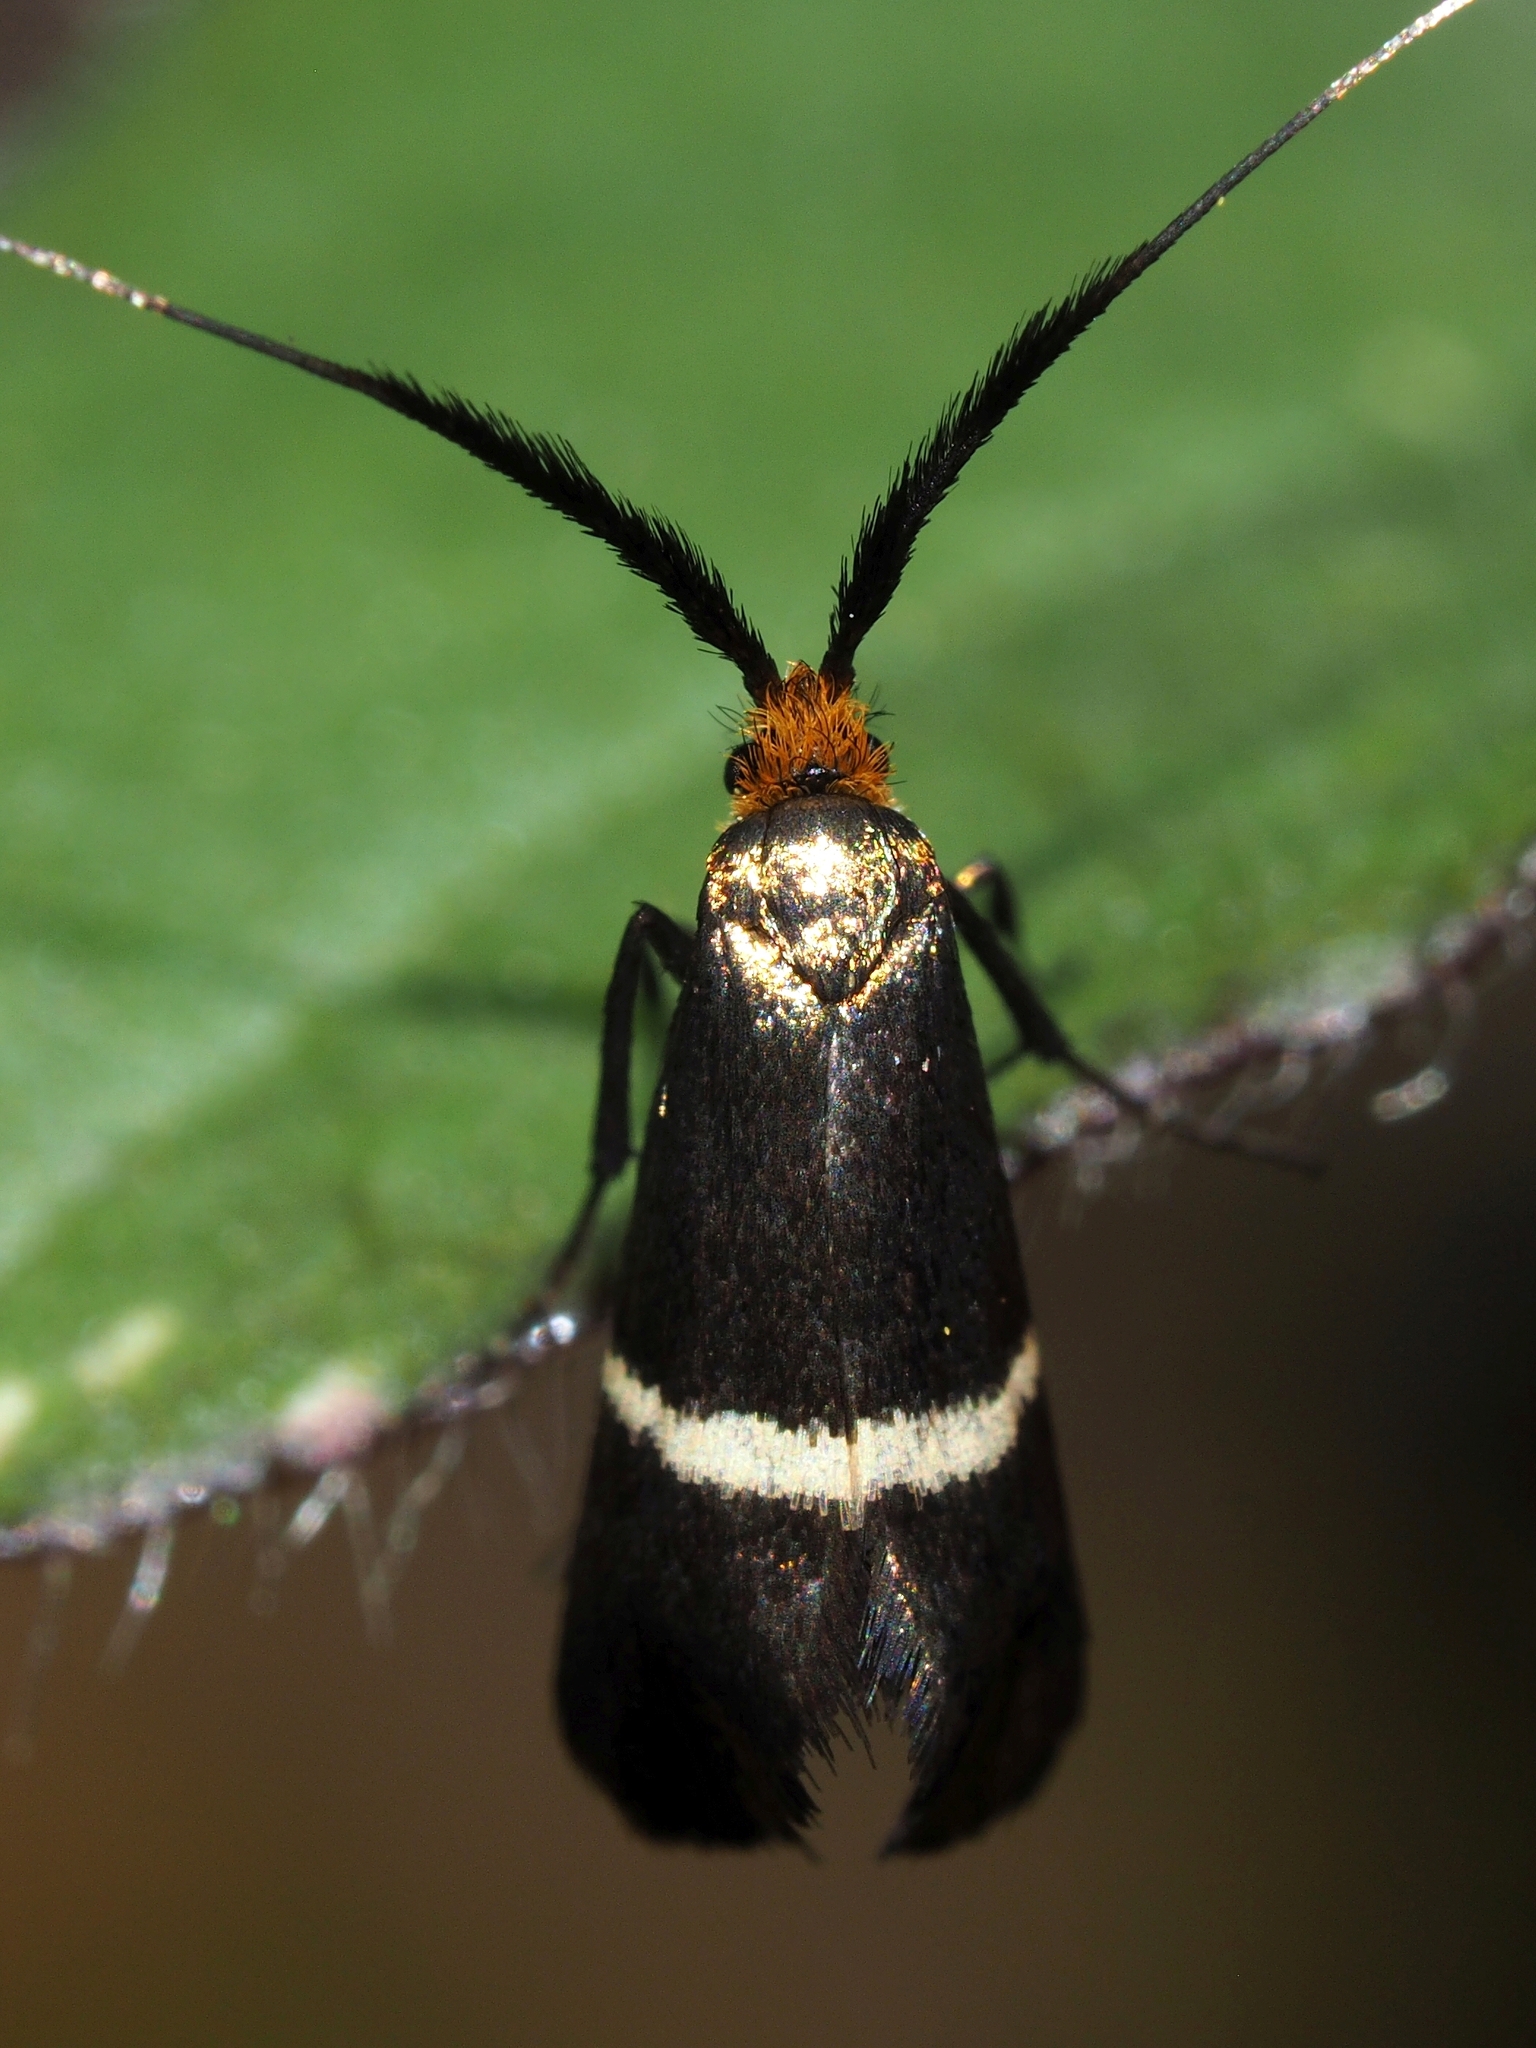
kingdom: Animalia
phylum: Arthropoda
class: Insecta
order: Lepidoptera
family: Adelidae
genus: Adela
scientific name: Adela australis
